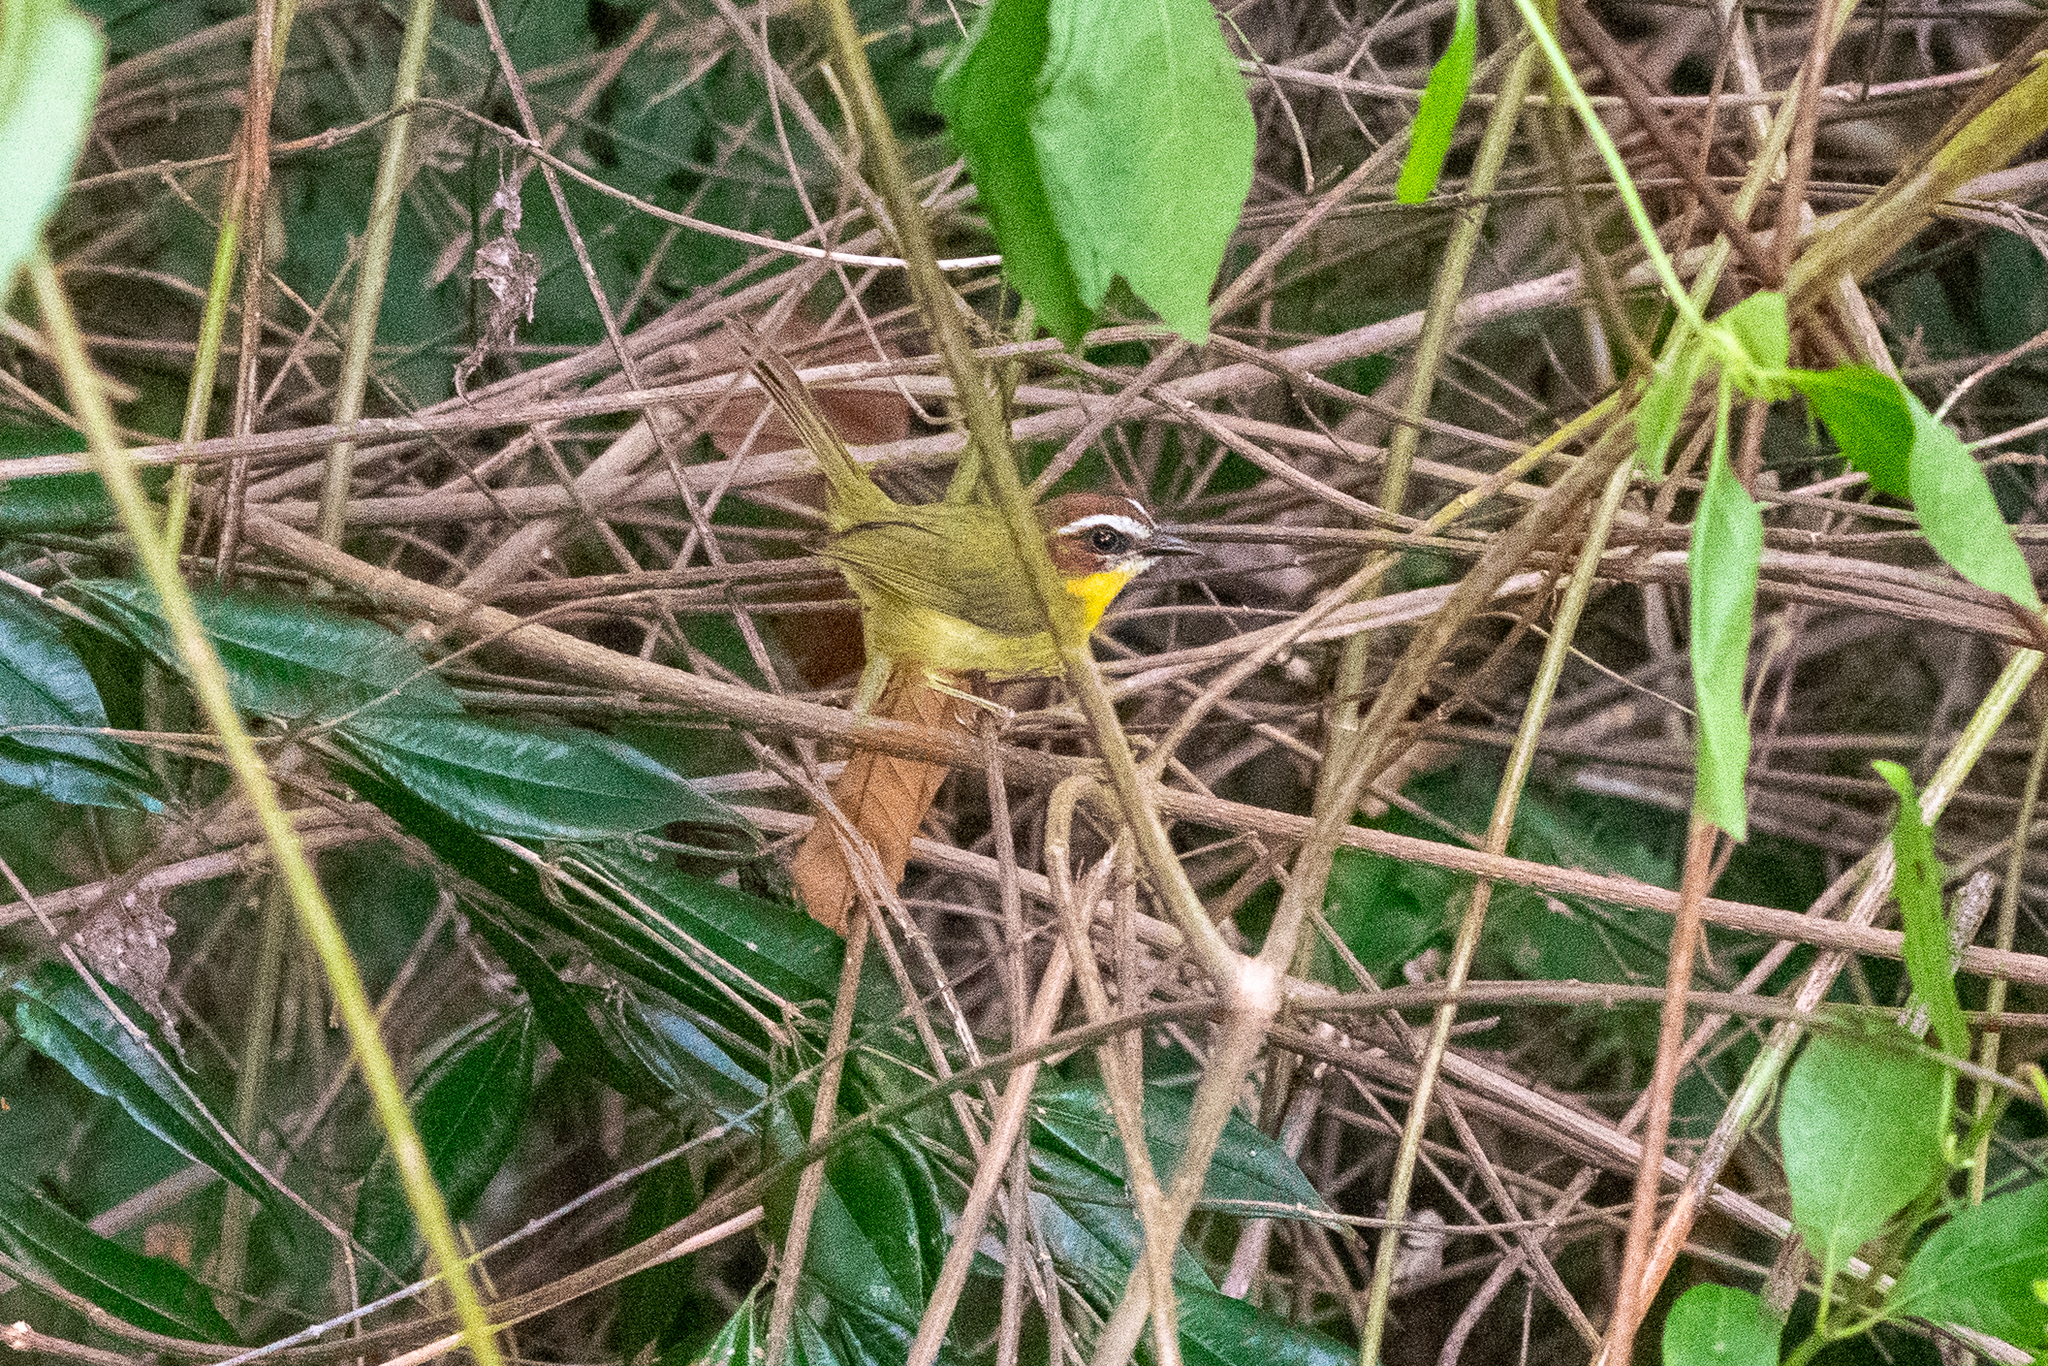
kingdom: Animalia
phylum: Chordata
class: Aves
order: Passeriformes
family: Parulidae
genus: Basileuterus
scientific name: Basileuterus rufifrons
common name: Rufous-capped warbler
